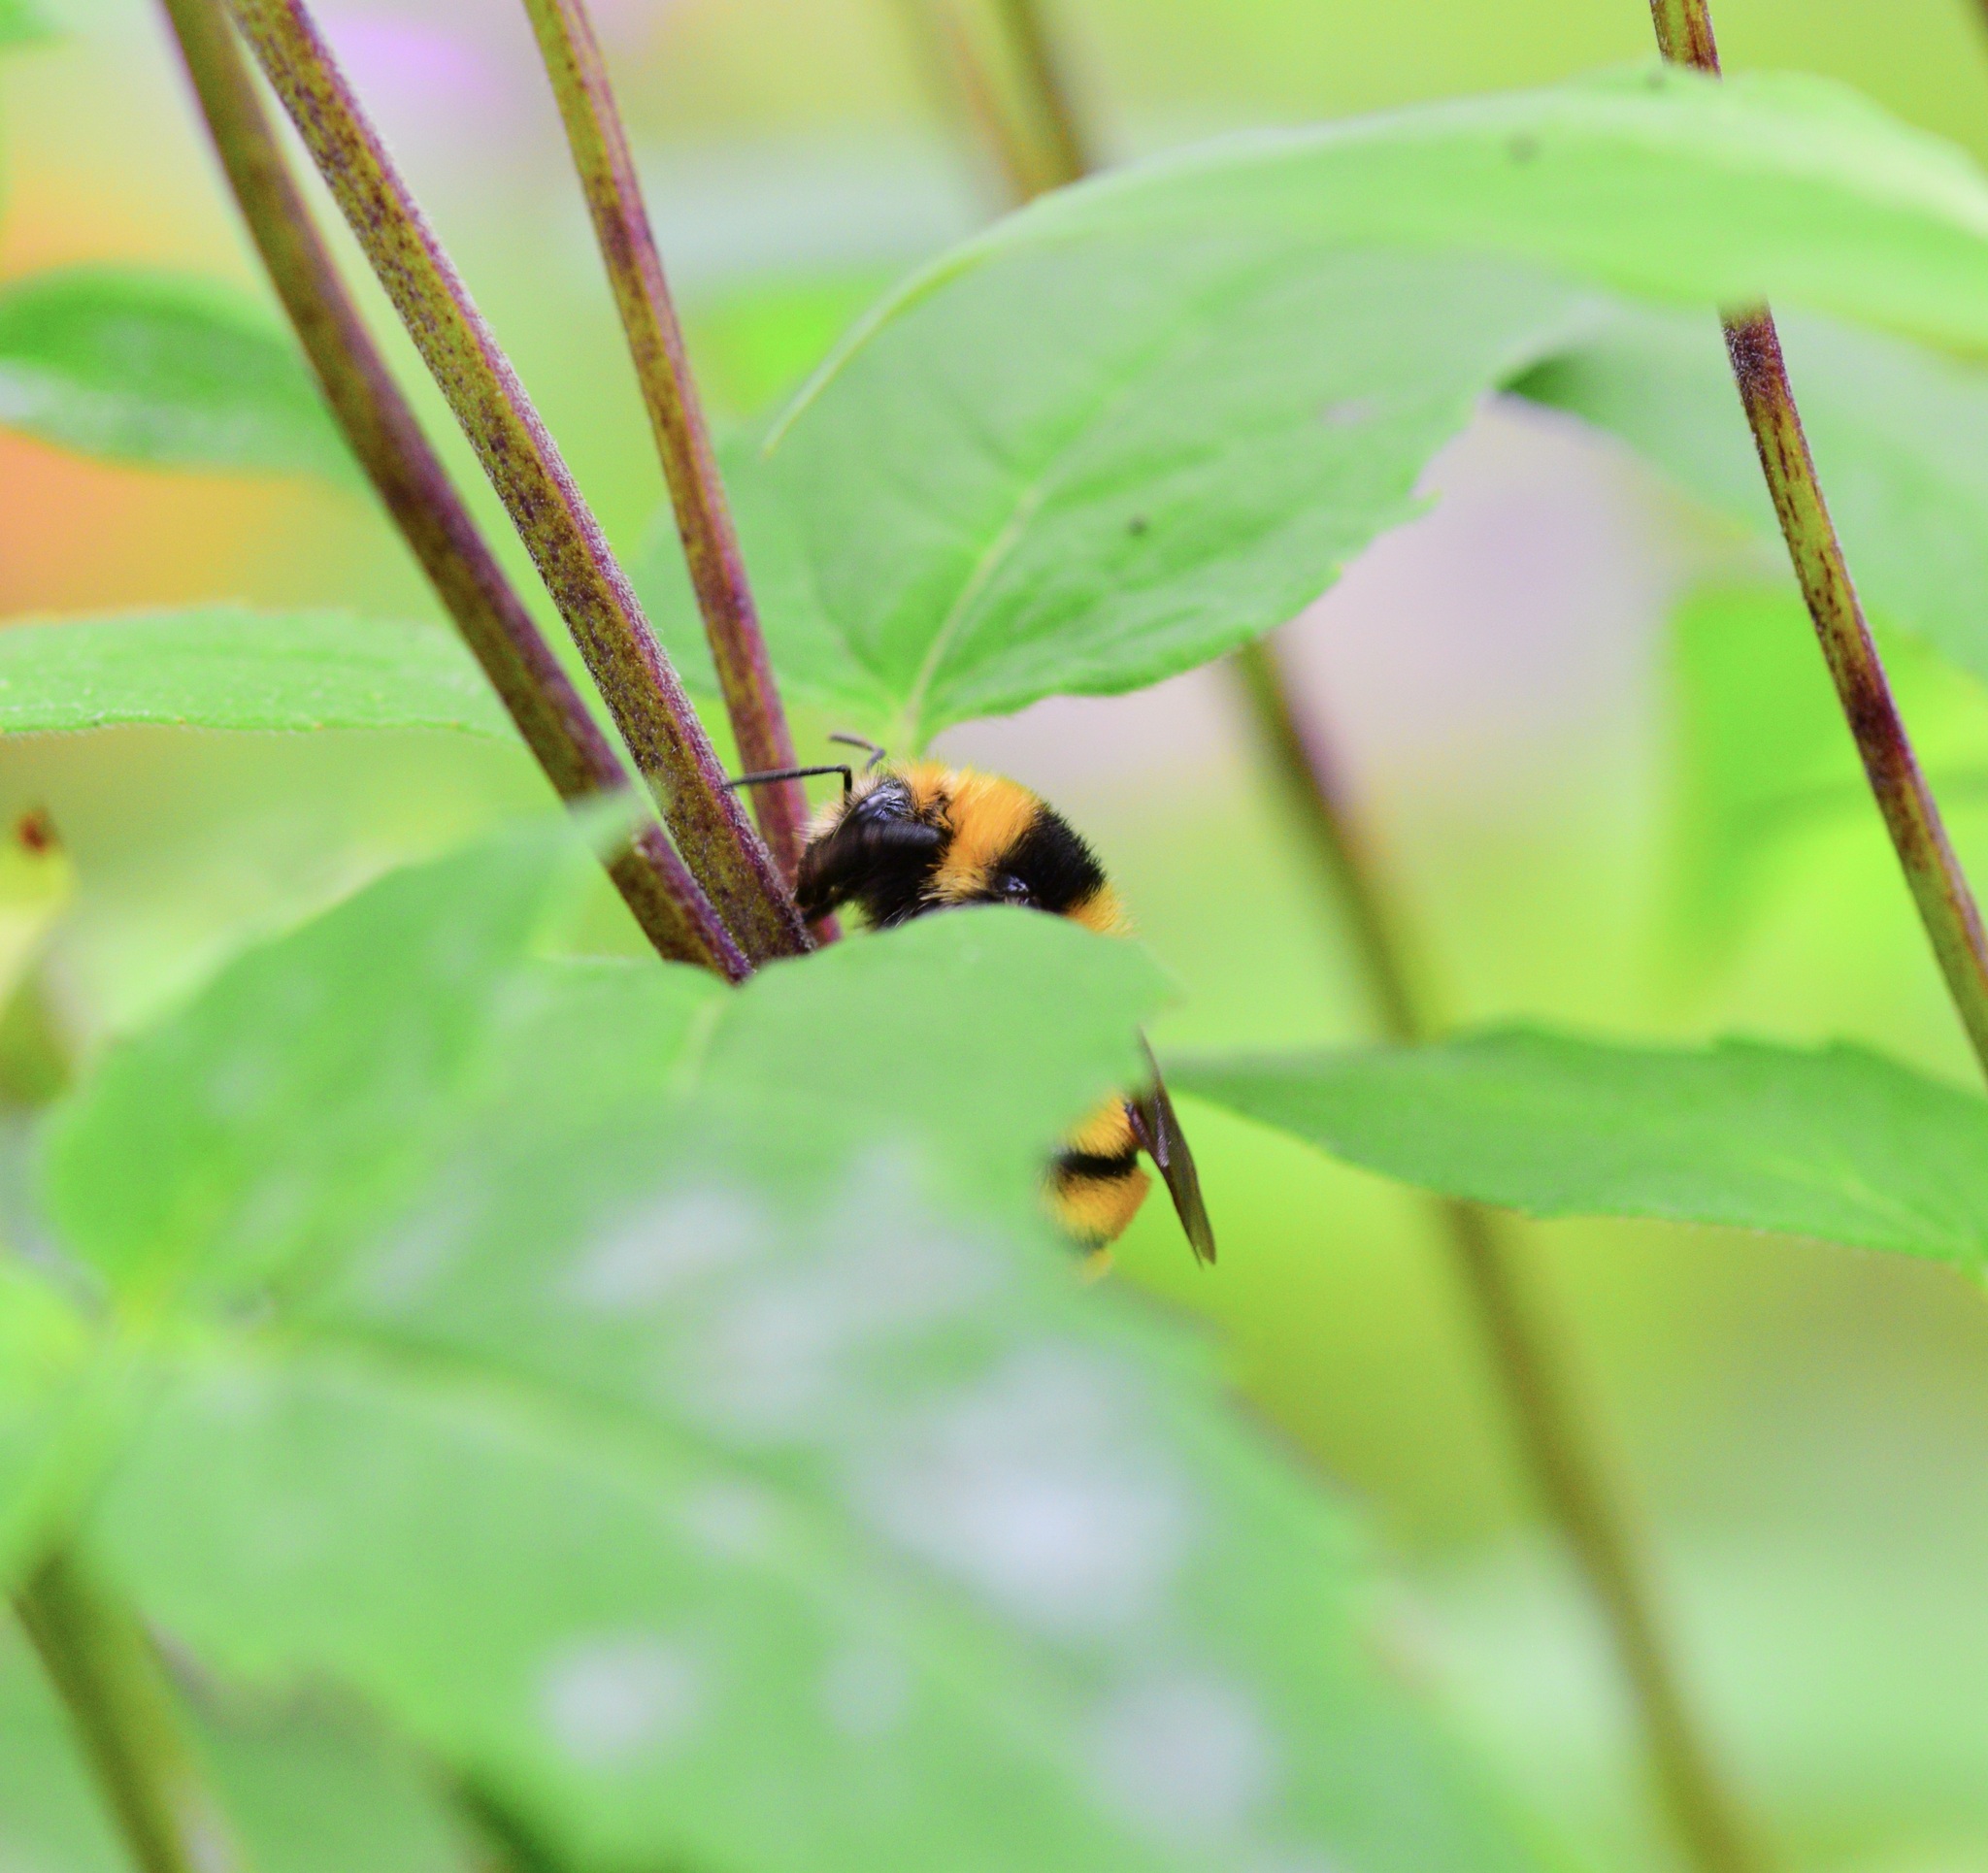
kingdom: Animalia
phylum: Arthropoda
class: Insecta
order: Hymenoptera
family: Apidae
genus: Bombus
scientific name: Bombus borealis
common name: Northern amber bumble bee
